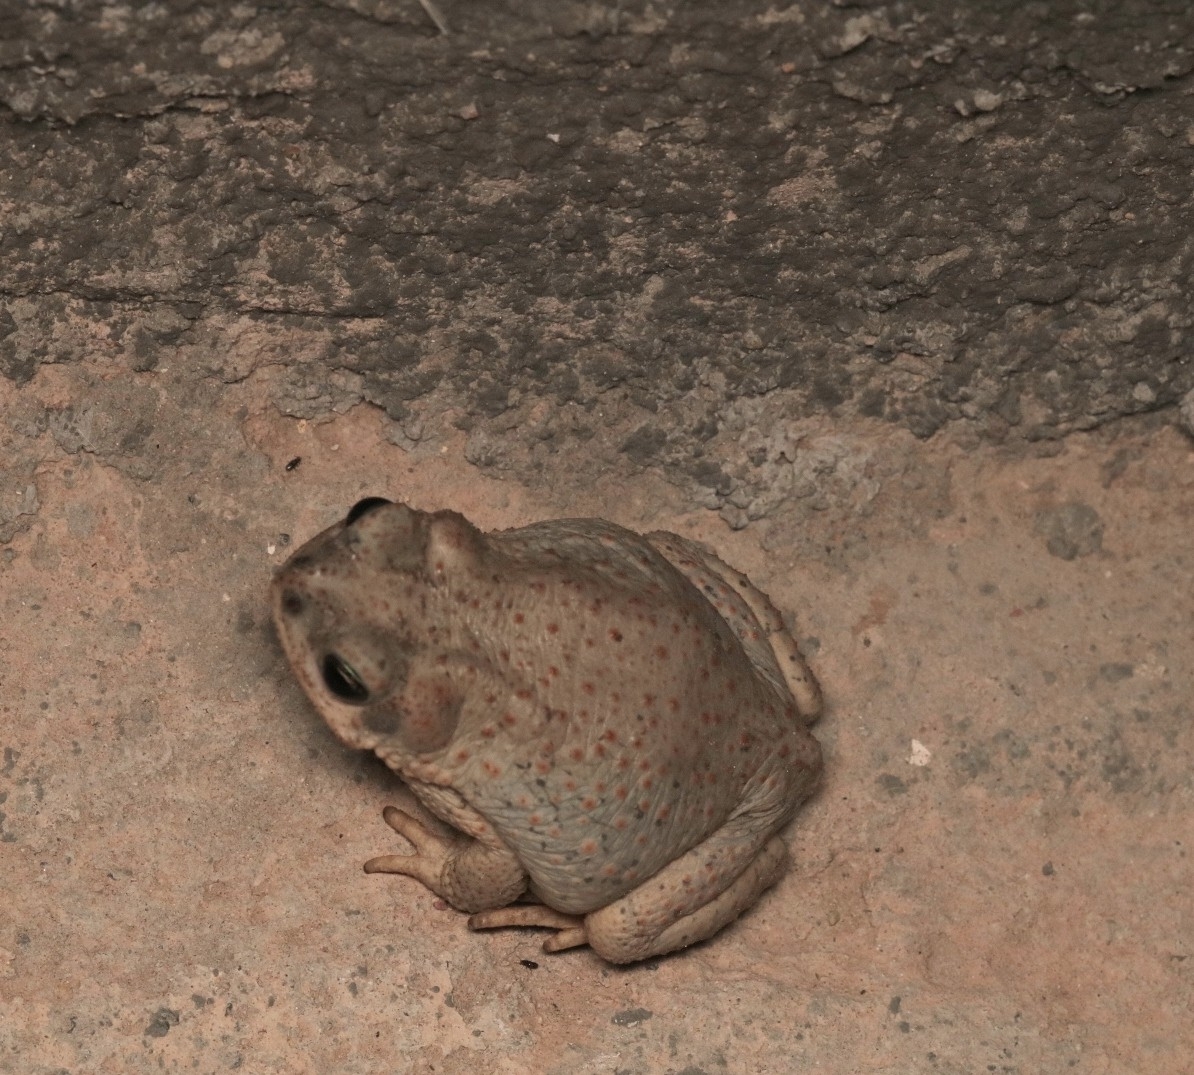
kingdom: Animalia
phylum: Chordata
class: Amphibia
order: Anura
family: Bufonidae
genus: Anaxyrus
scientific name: Anaxyrus punctatus
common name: Red-spotted toad
